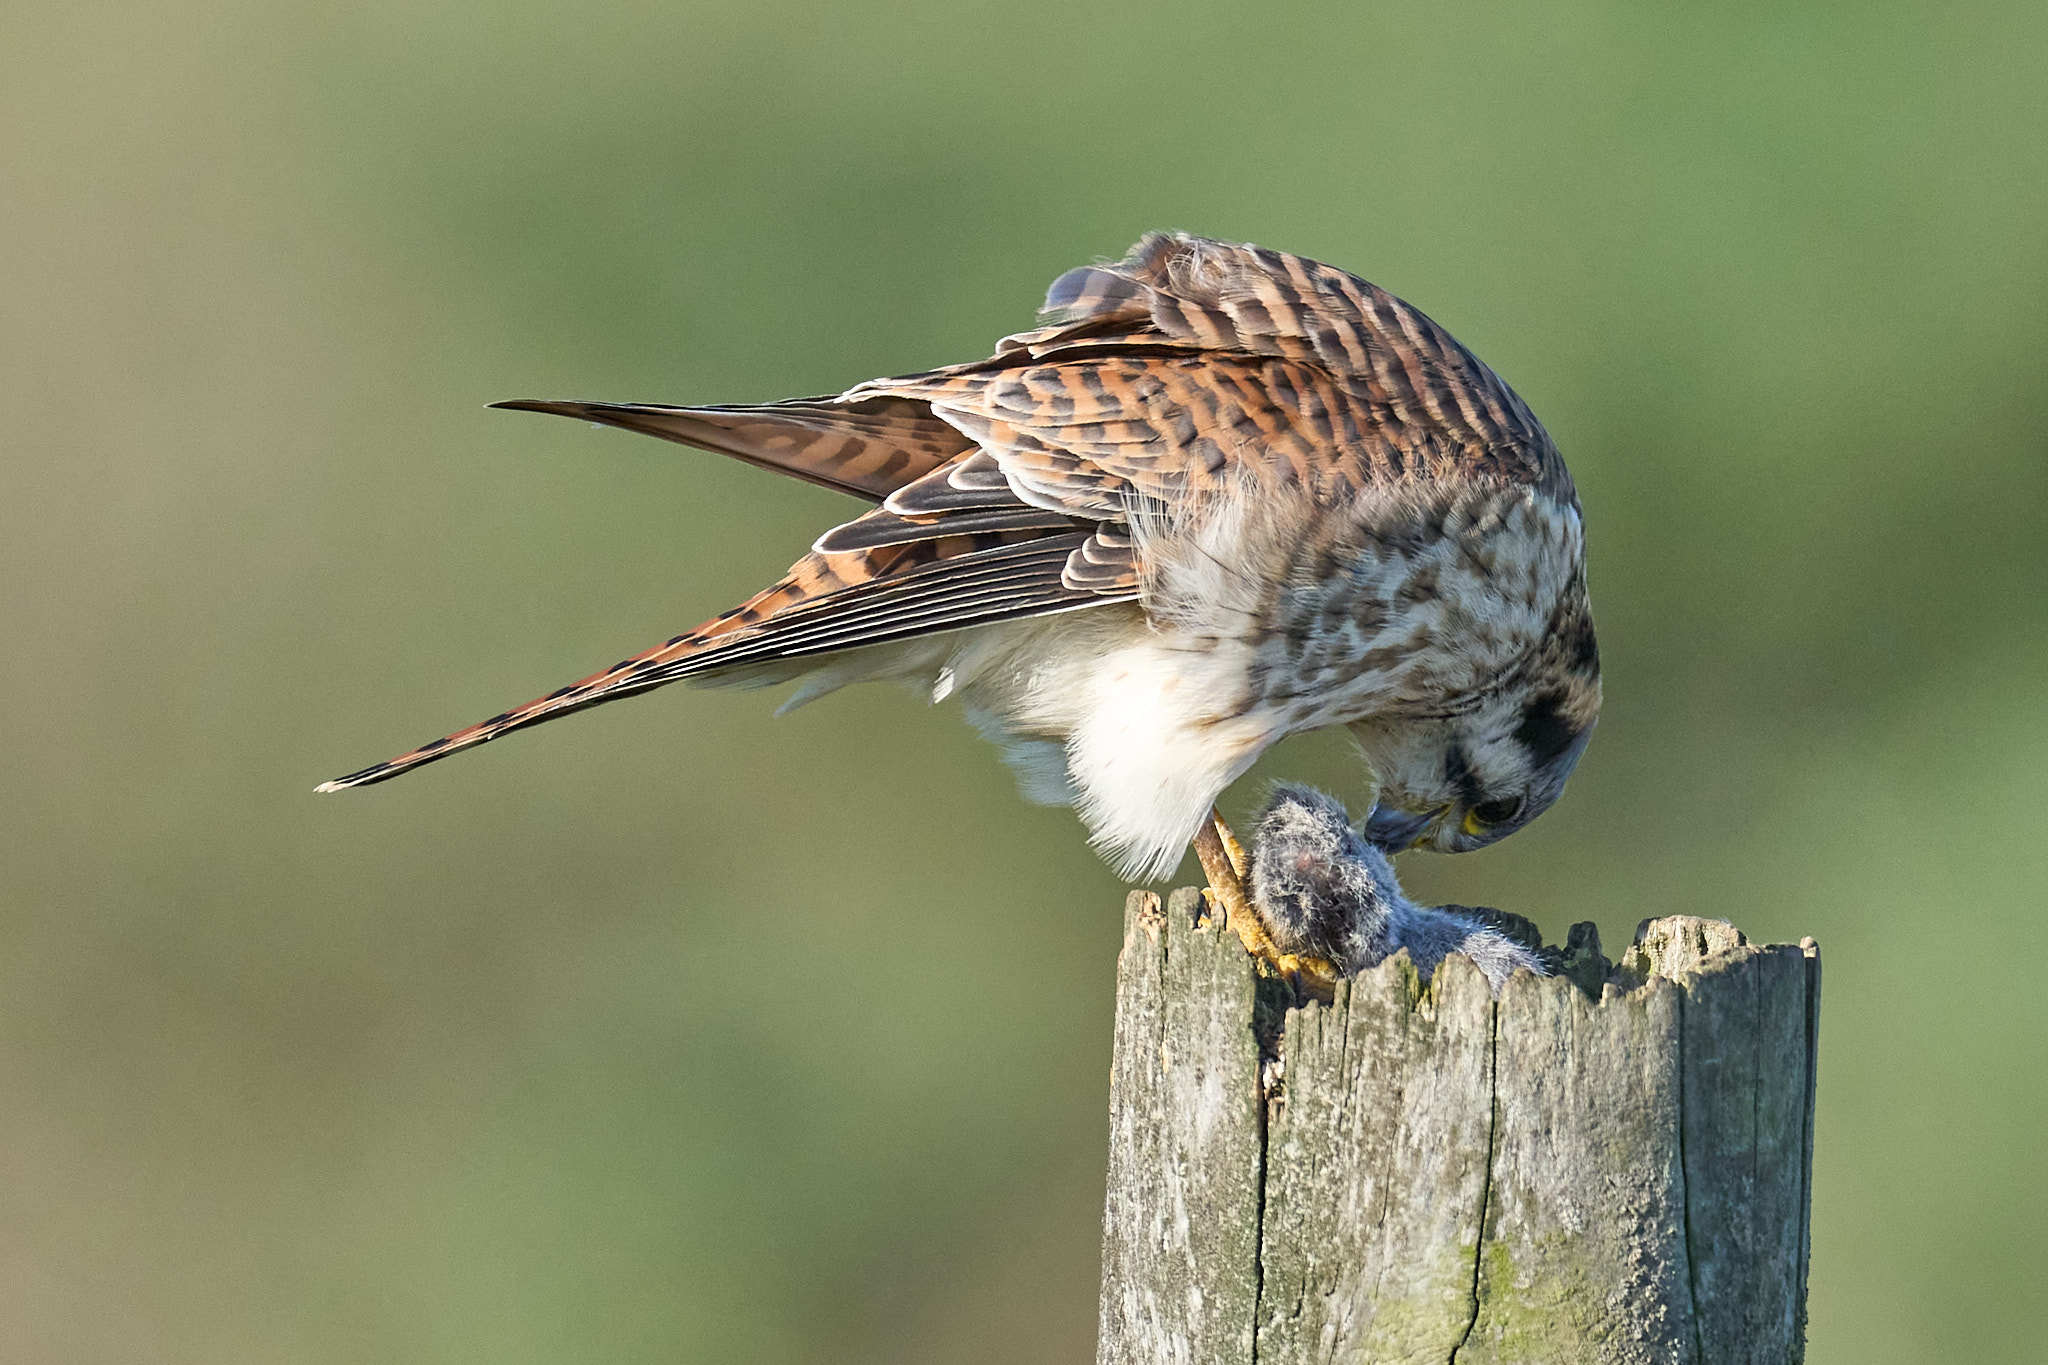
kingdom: Animalia
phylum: Chordata
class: Aves
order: Falconiformes
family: Falconidae
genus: Falco
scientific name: Falco sparverius
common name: American kestrel
